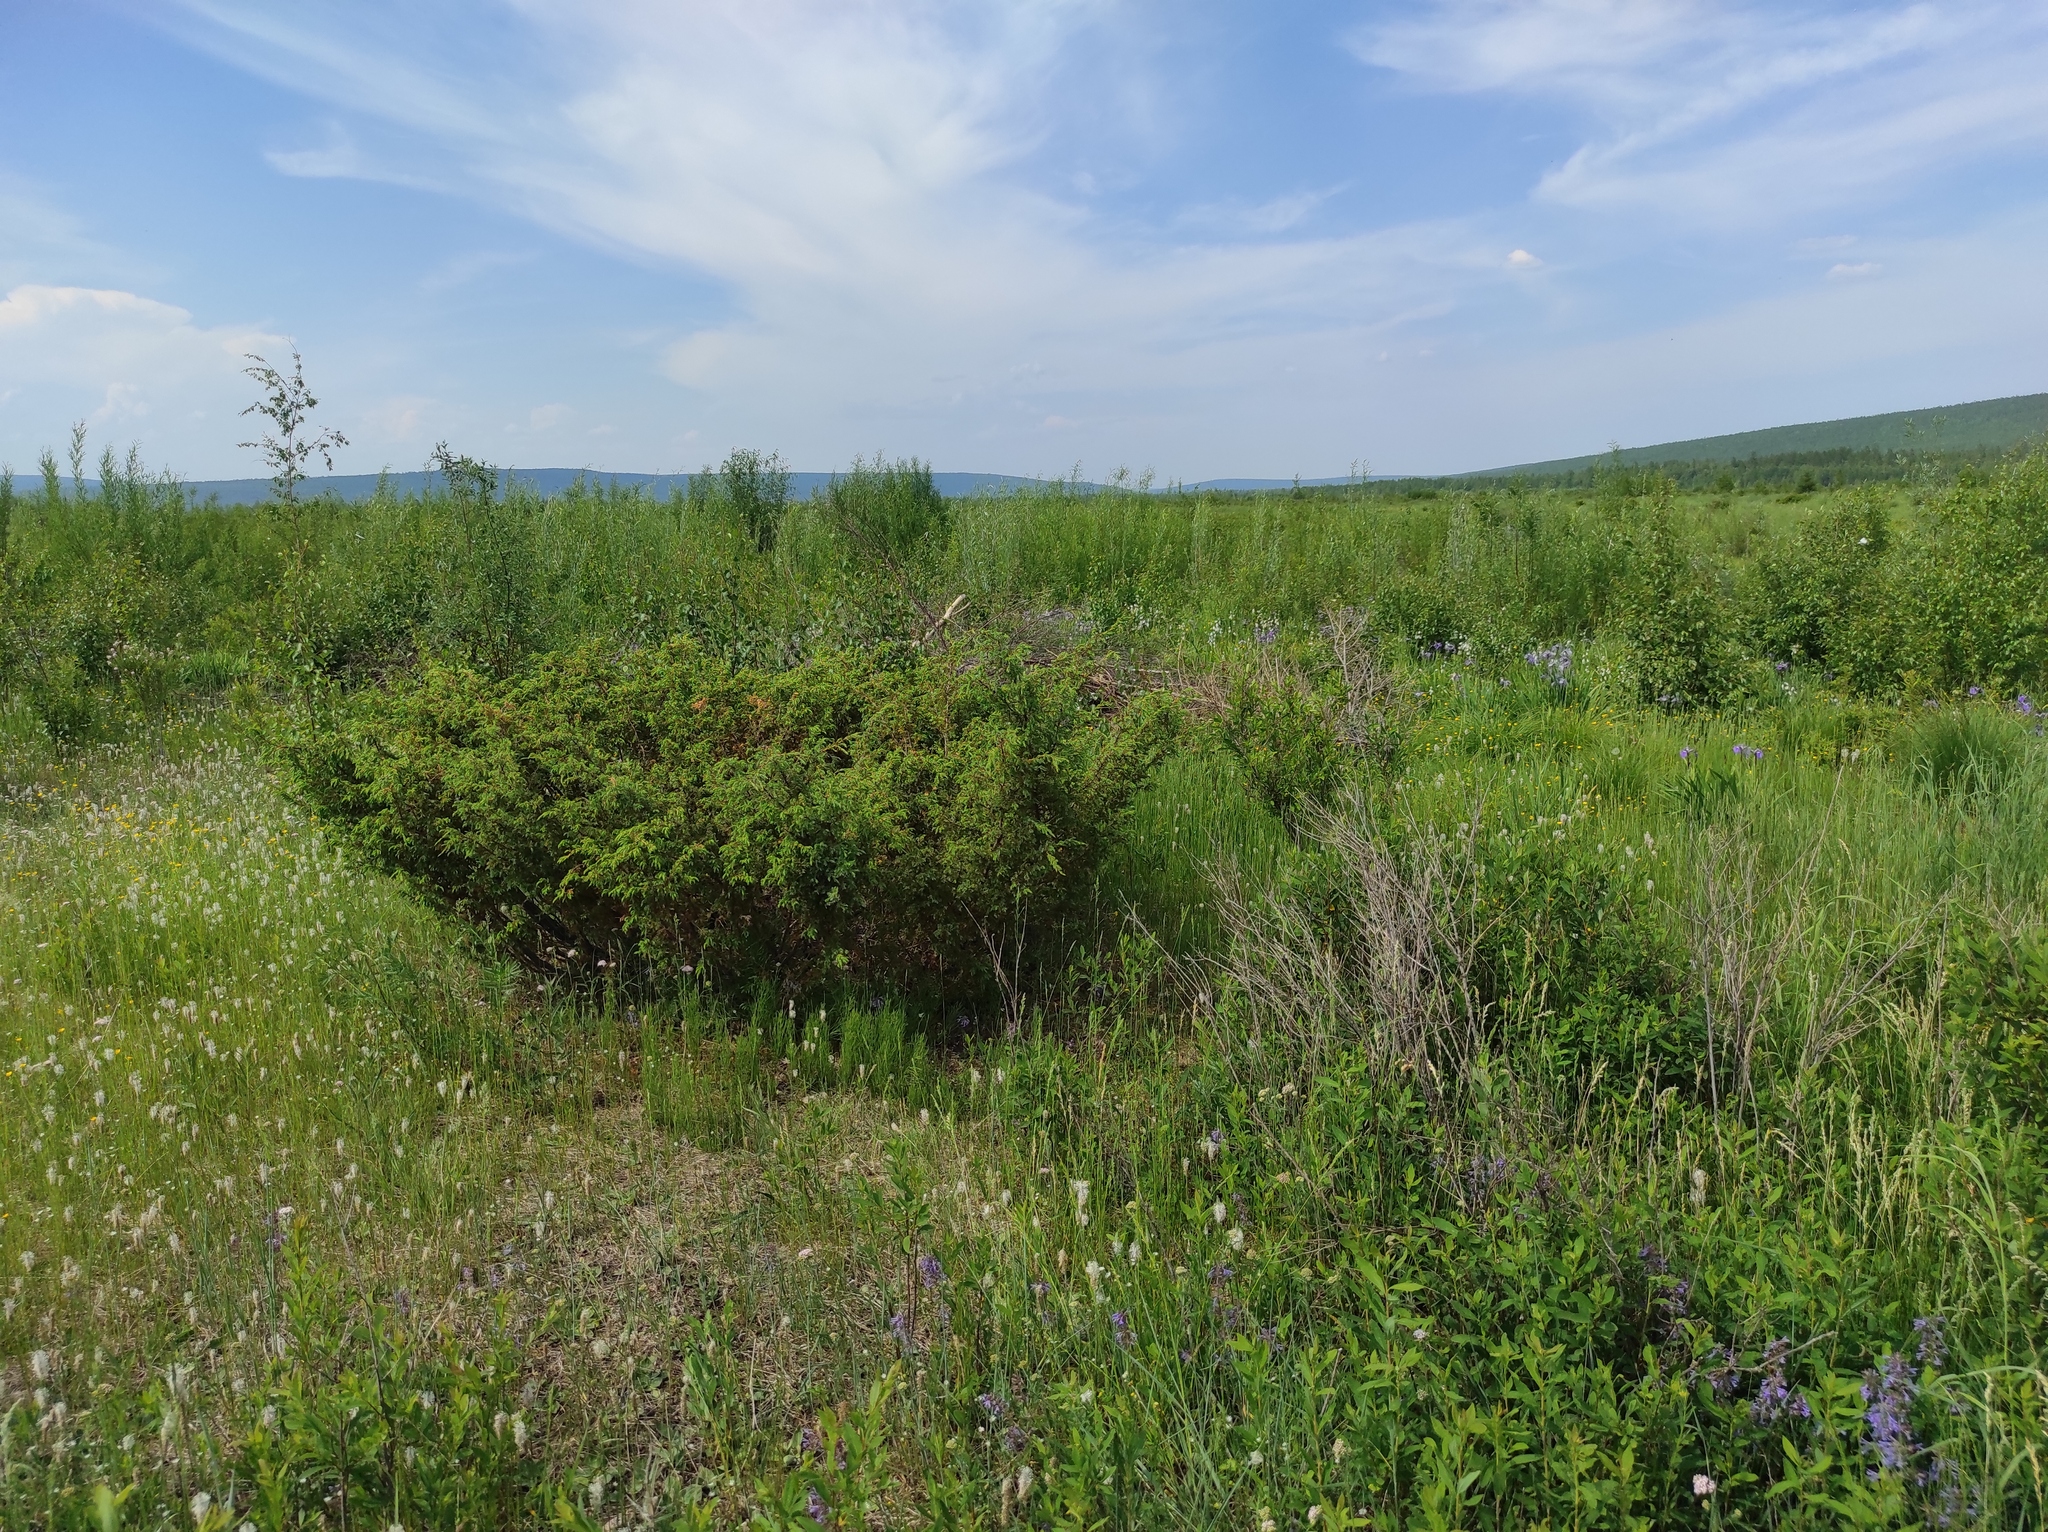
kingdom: Plantae
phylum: Tracheophyta
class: Pinopsida
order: Pinales
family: Cupressaceae
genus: Juniperus
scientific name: Juniperus communis
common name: Common juniper
